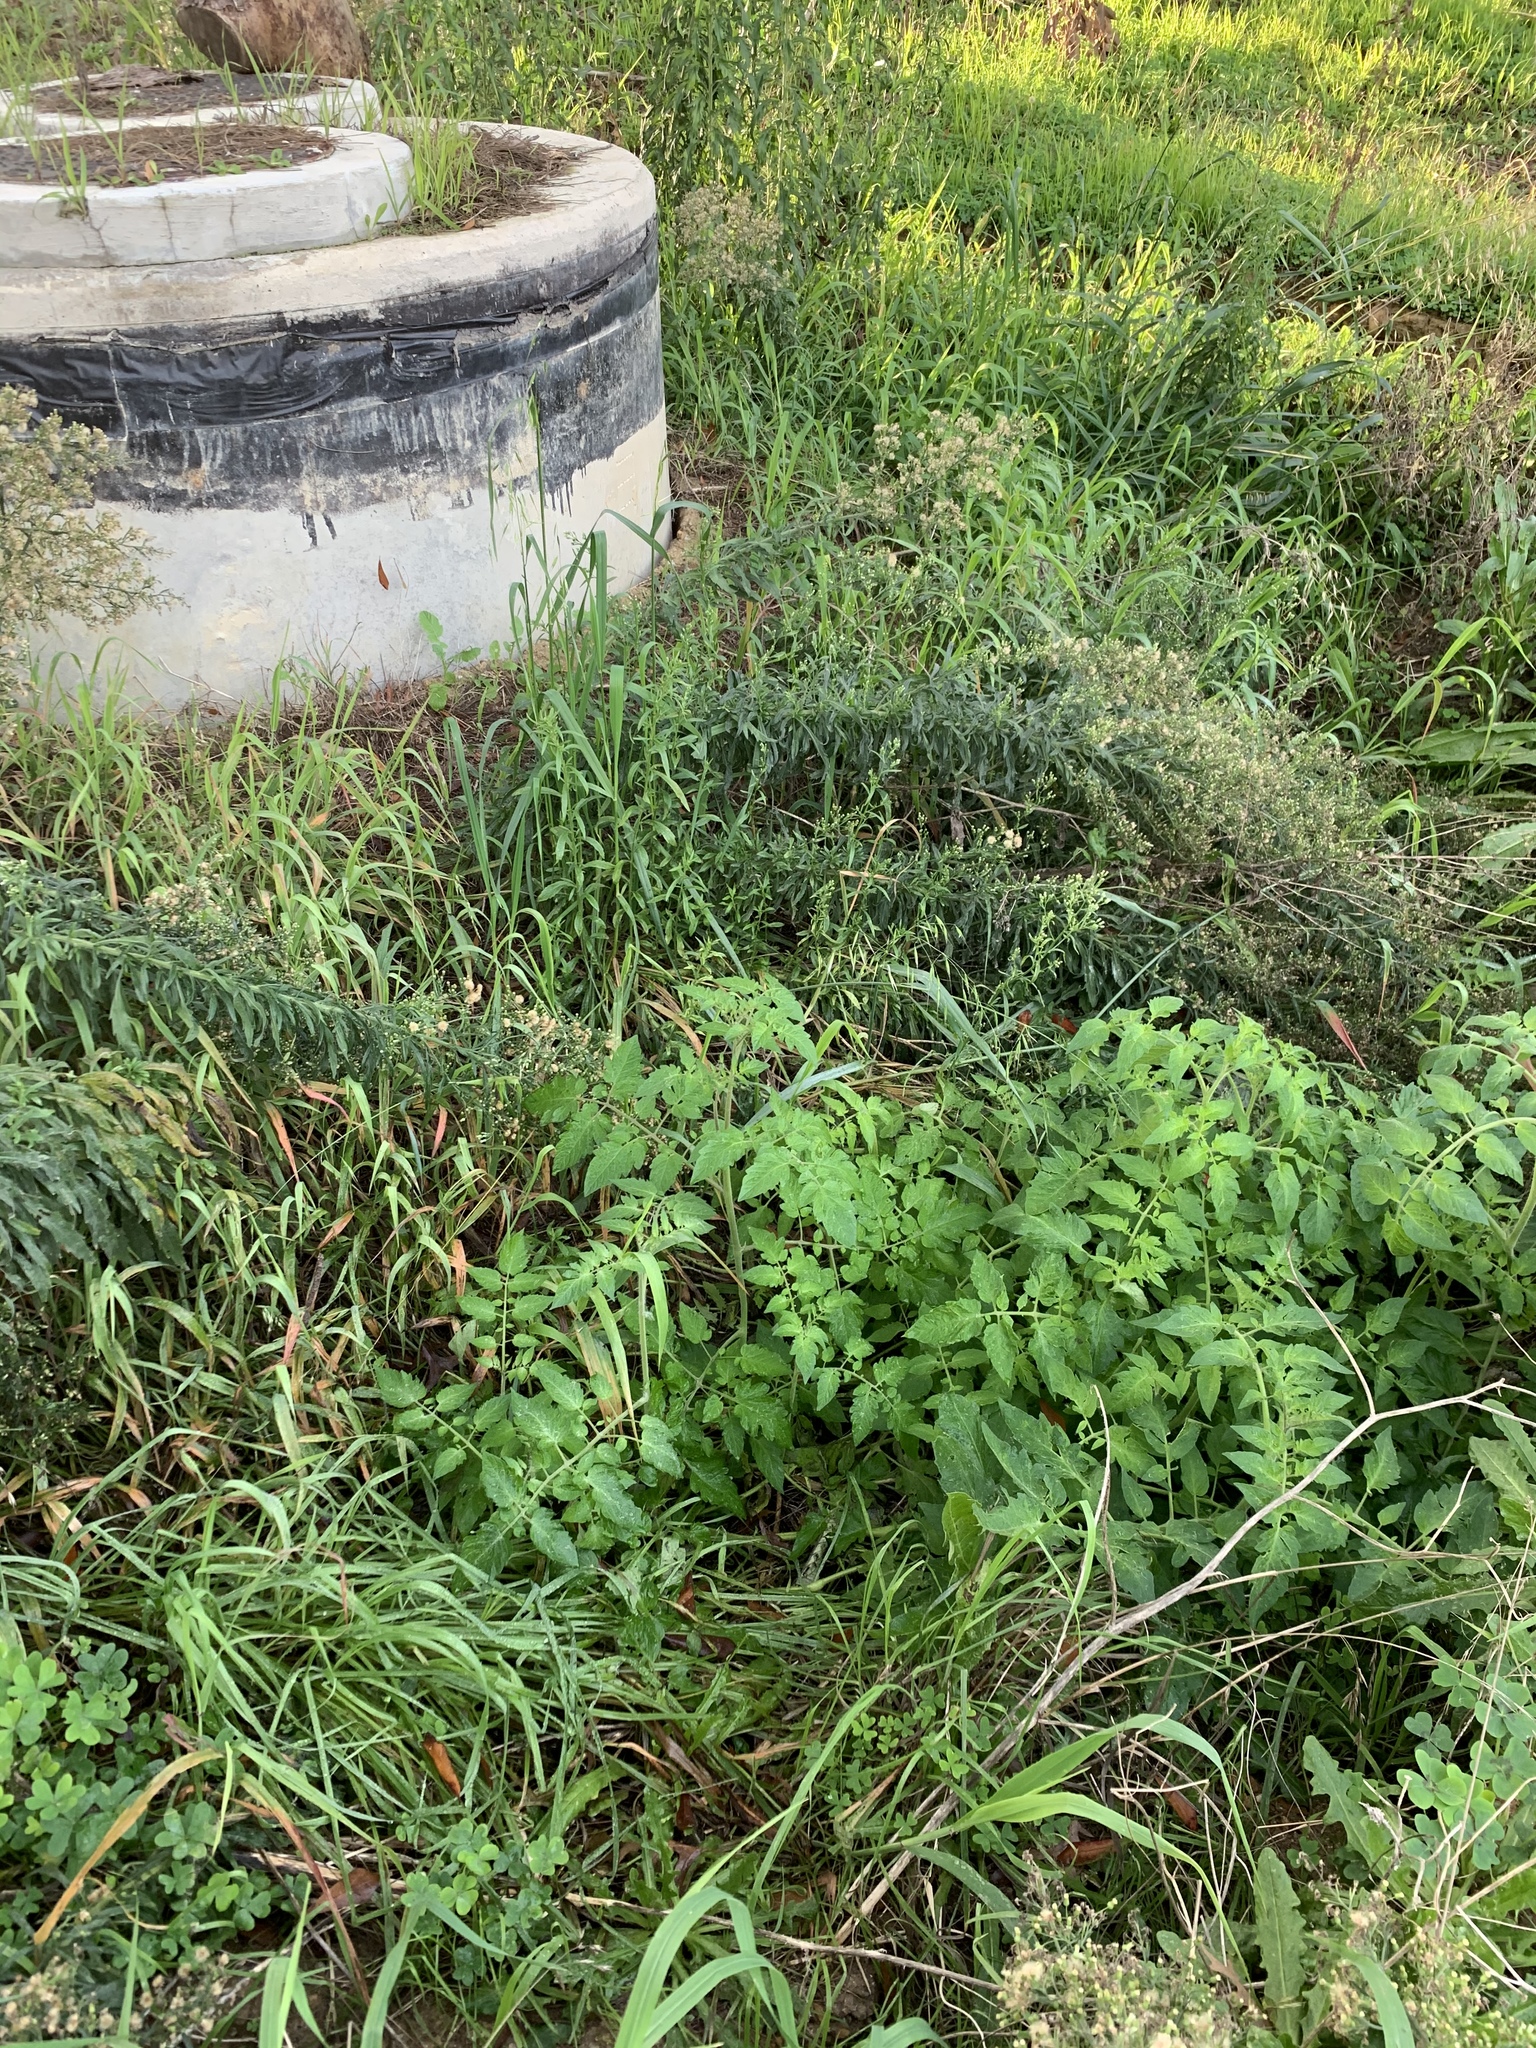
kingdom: Plantae
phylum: Tracheophyta
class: Magnoliopsida
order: Solanales
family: Solanaceae
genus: Solanum
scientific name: Solanum lycopersicum
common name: Garden tomato
